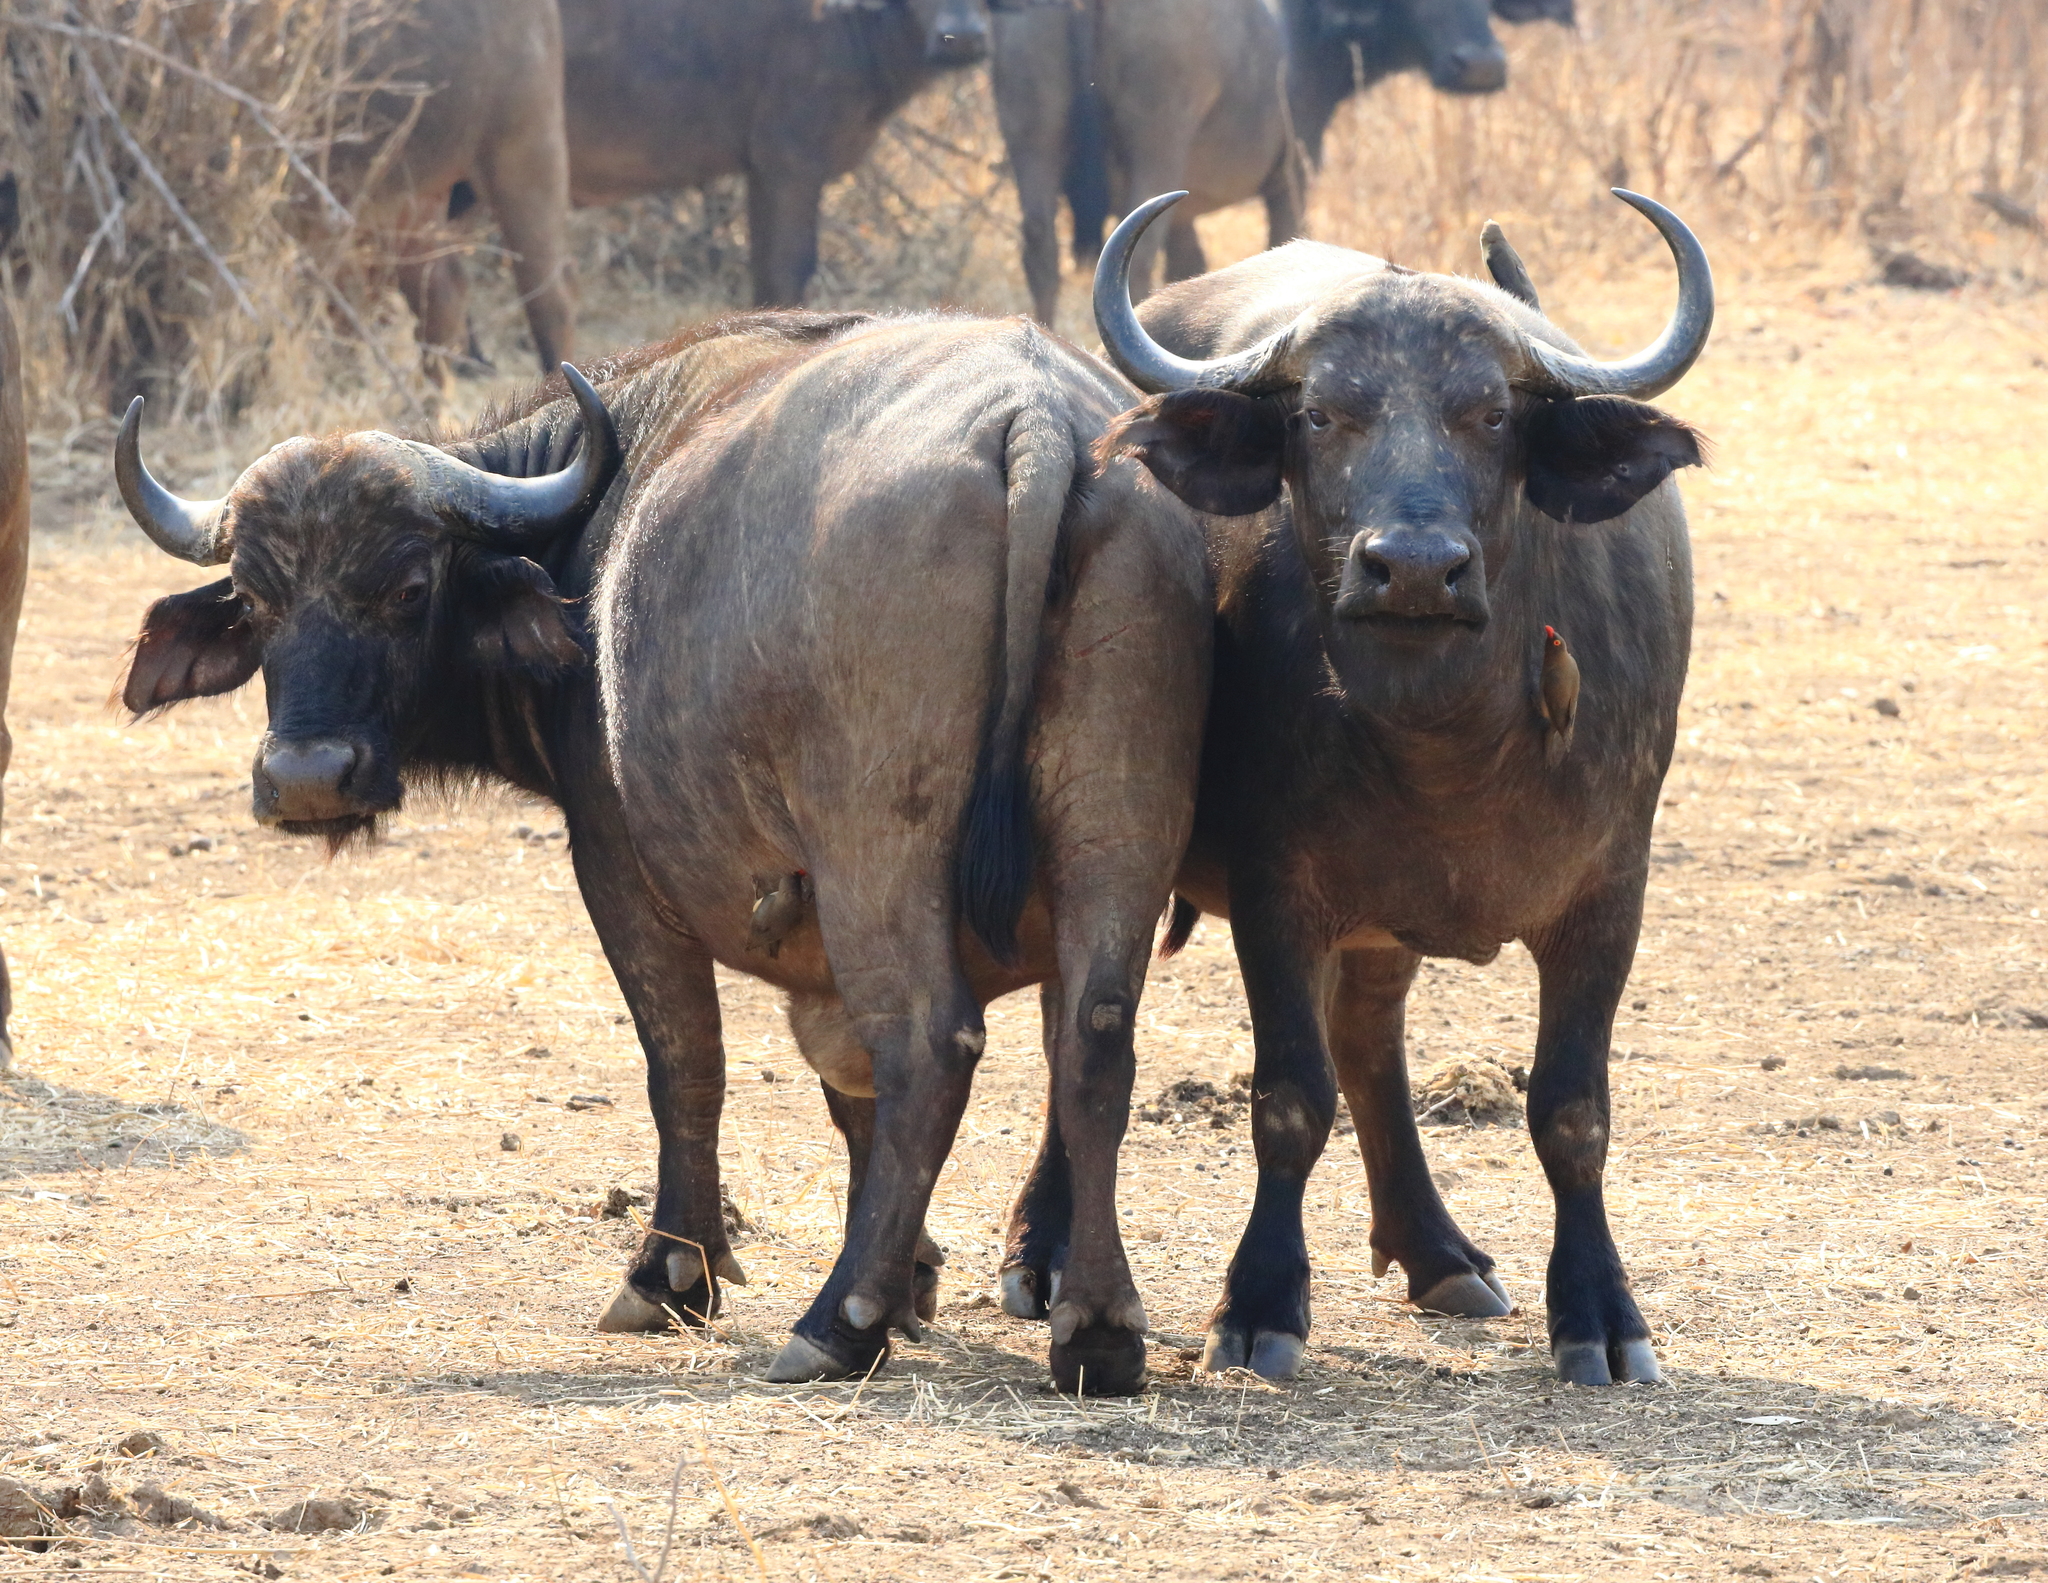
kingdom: Animalia
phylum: Chordata
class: Mammalia
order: Artiodactyla
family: Bovidae
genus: Syncerus
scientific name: Syncerus caffer
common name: African buffalo
